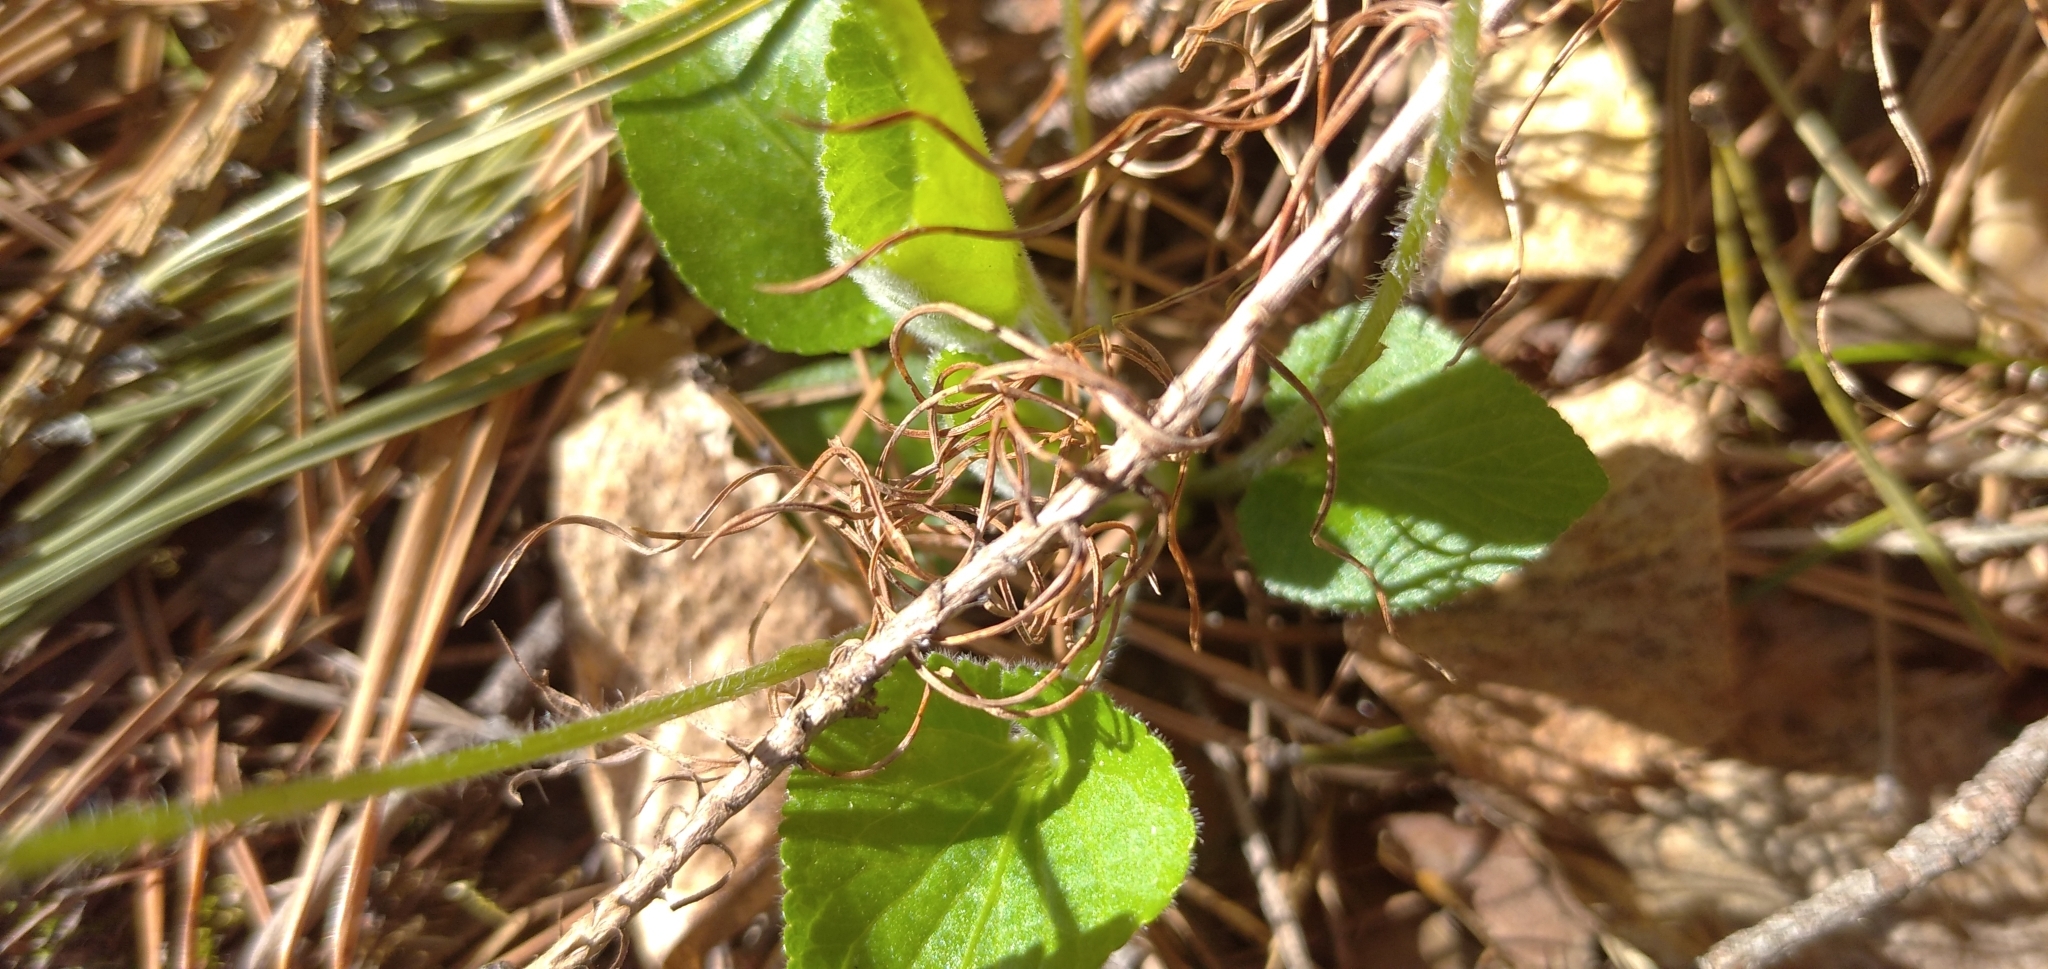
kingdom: Plantae
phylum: Tracheophyta
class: Magnoliopsida
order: Malpighiales
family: Violaceae
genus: Viola
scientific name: Viola hirta
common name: Hairy violet
